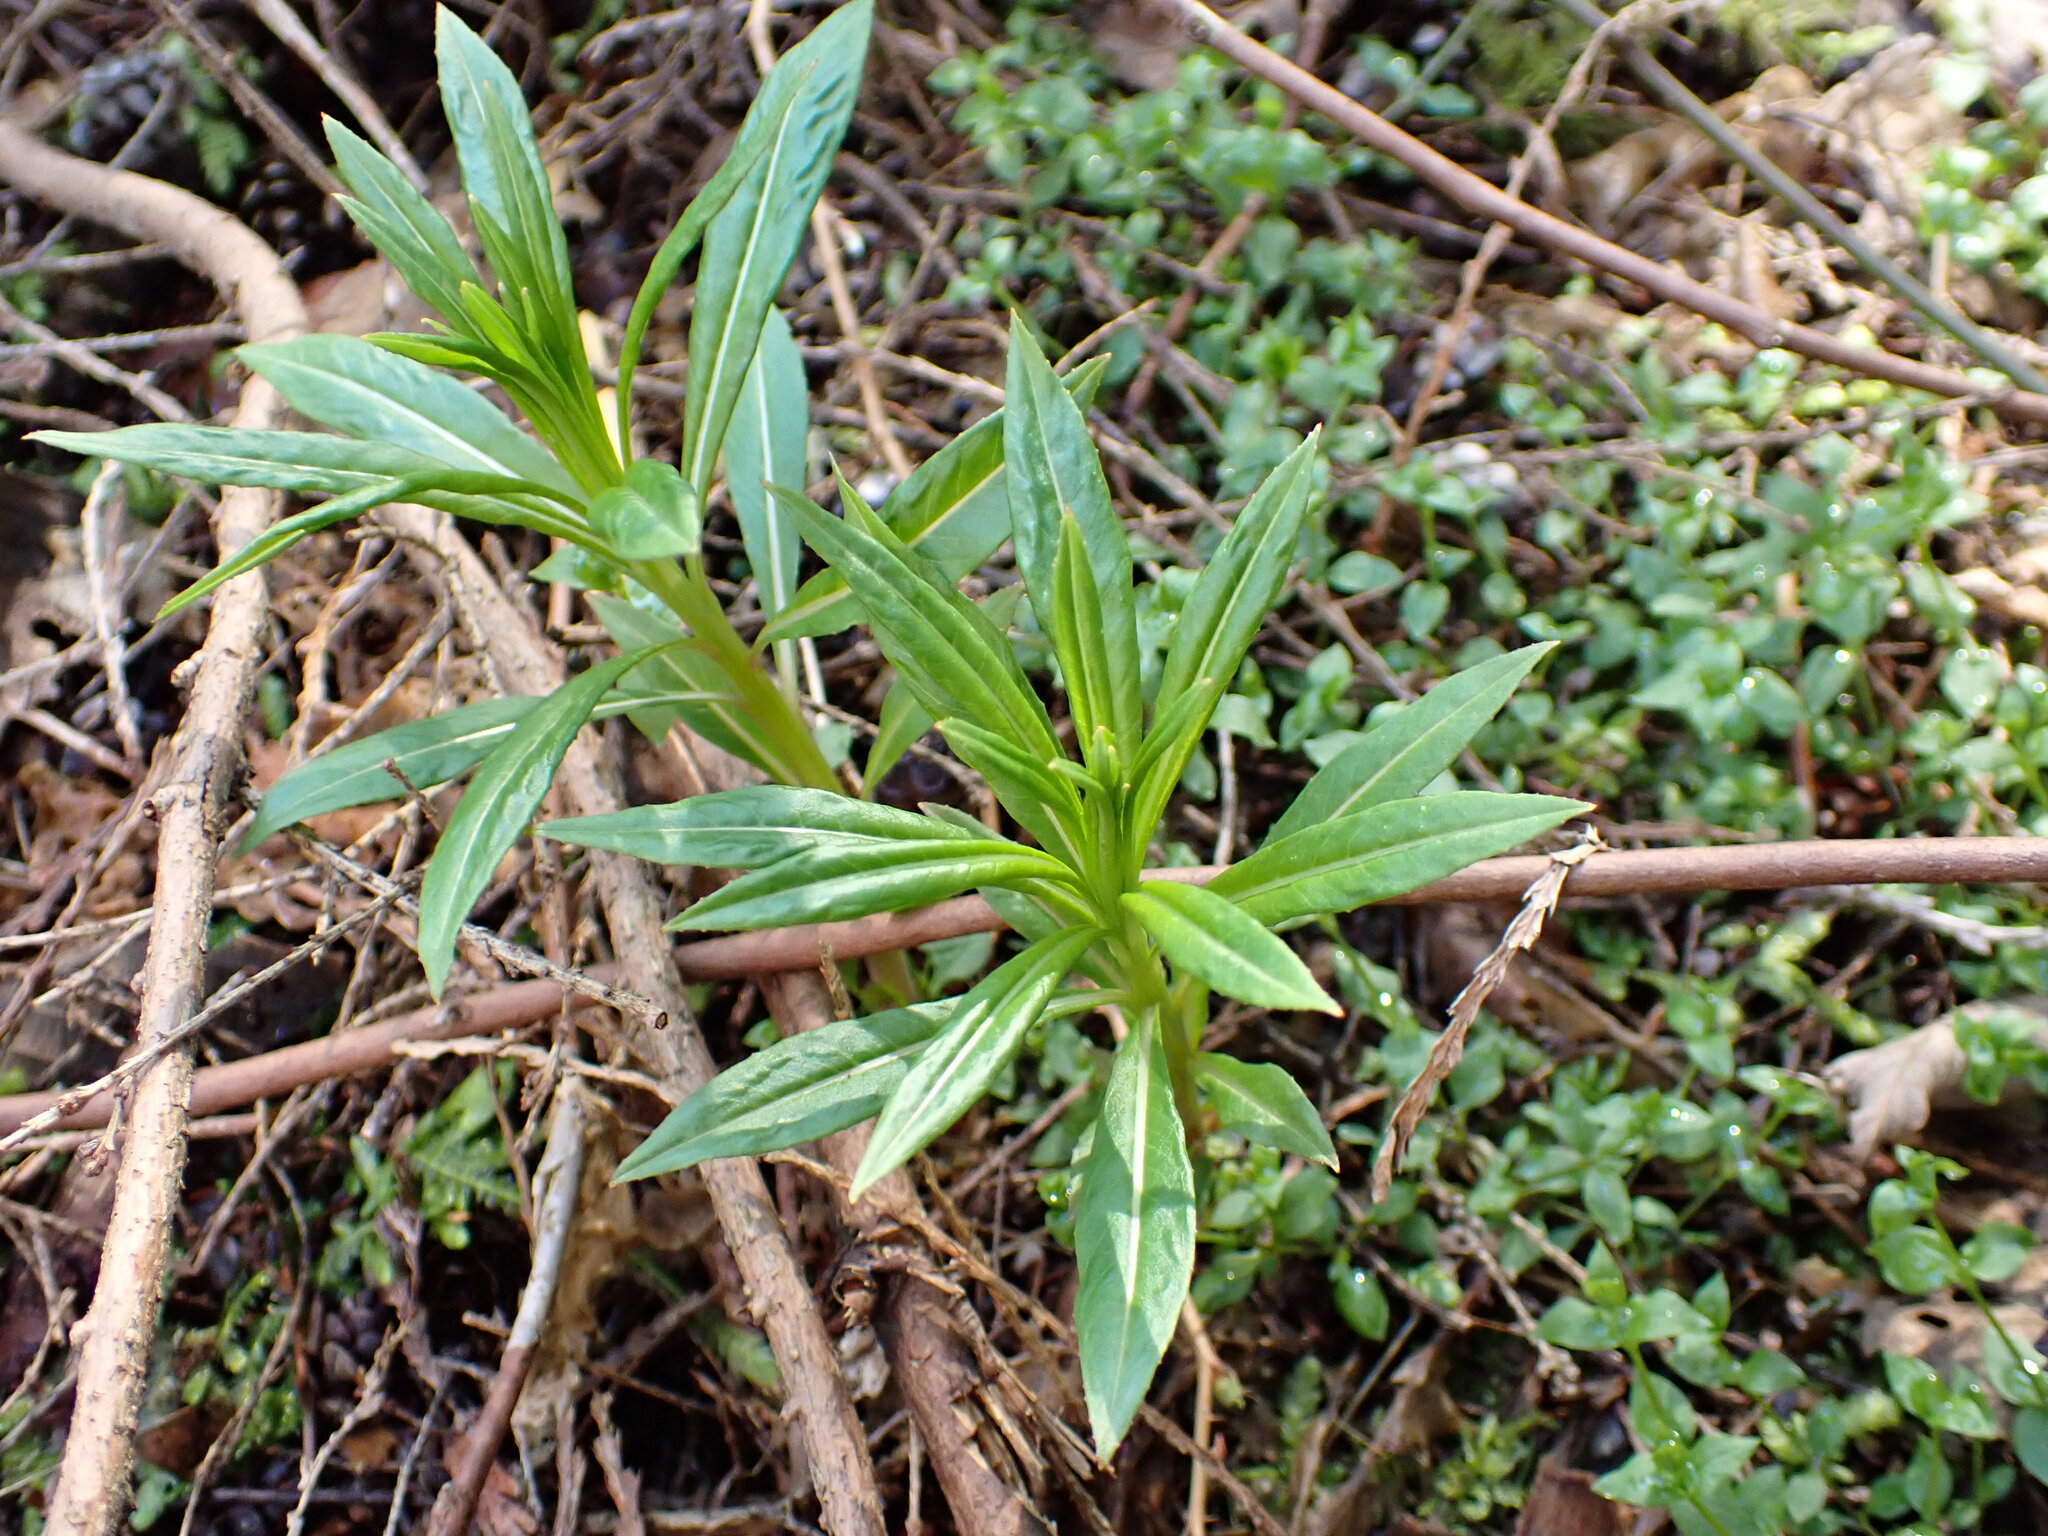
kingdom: Plantae
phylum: Tracheophyta
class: Magnoliopsida
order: Myrtales
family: Onagraceae
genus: Chamaenerion
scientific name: Chamaenerion angustifolium
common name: Fireweed
